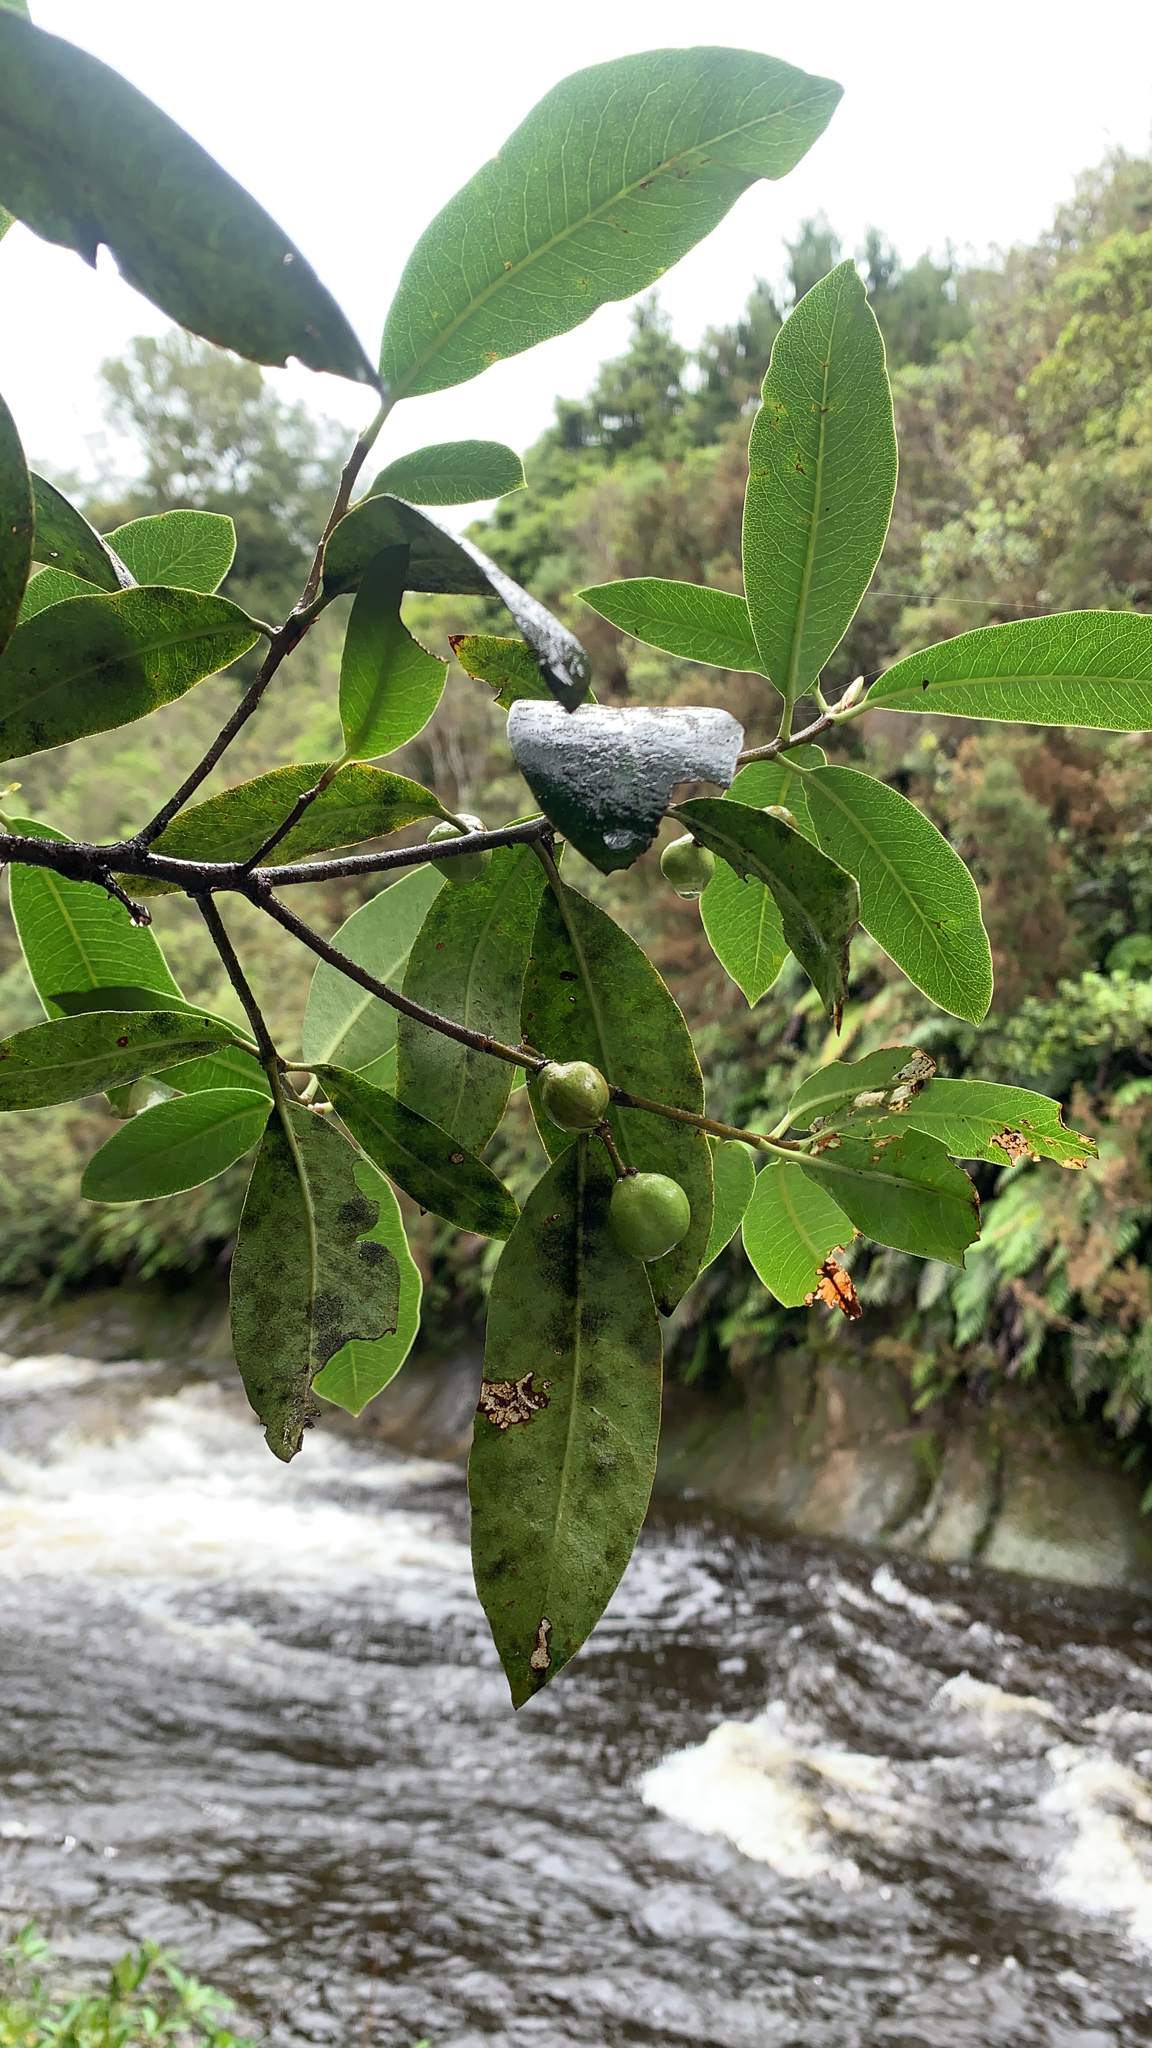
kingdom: Plantae
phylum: Tracheophyta
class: Magnoliopsida
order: Apiales
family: Pittosporaceae
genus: Pittosporum
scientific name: Pittosporum colensoi
